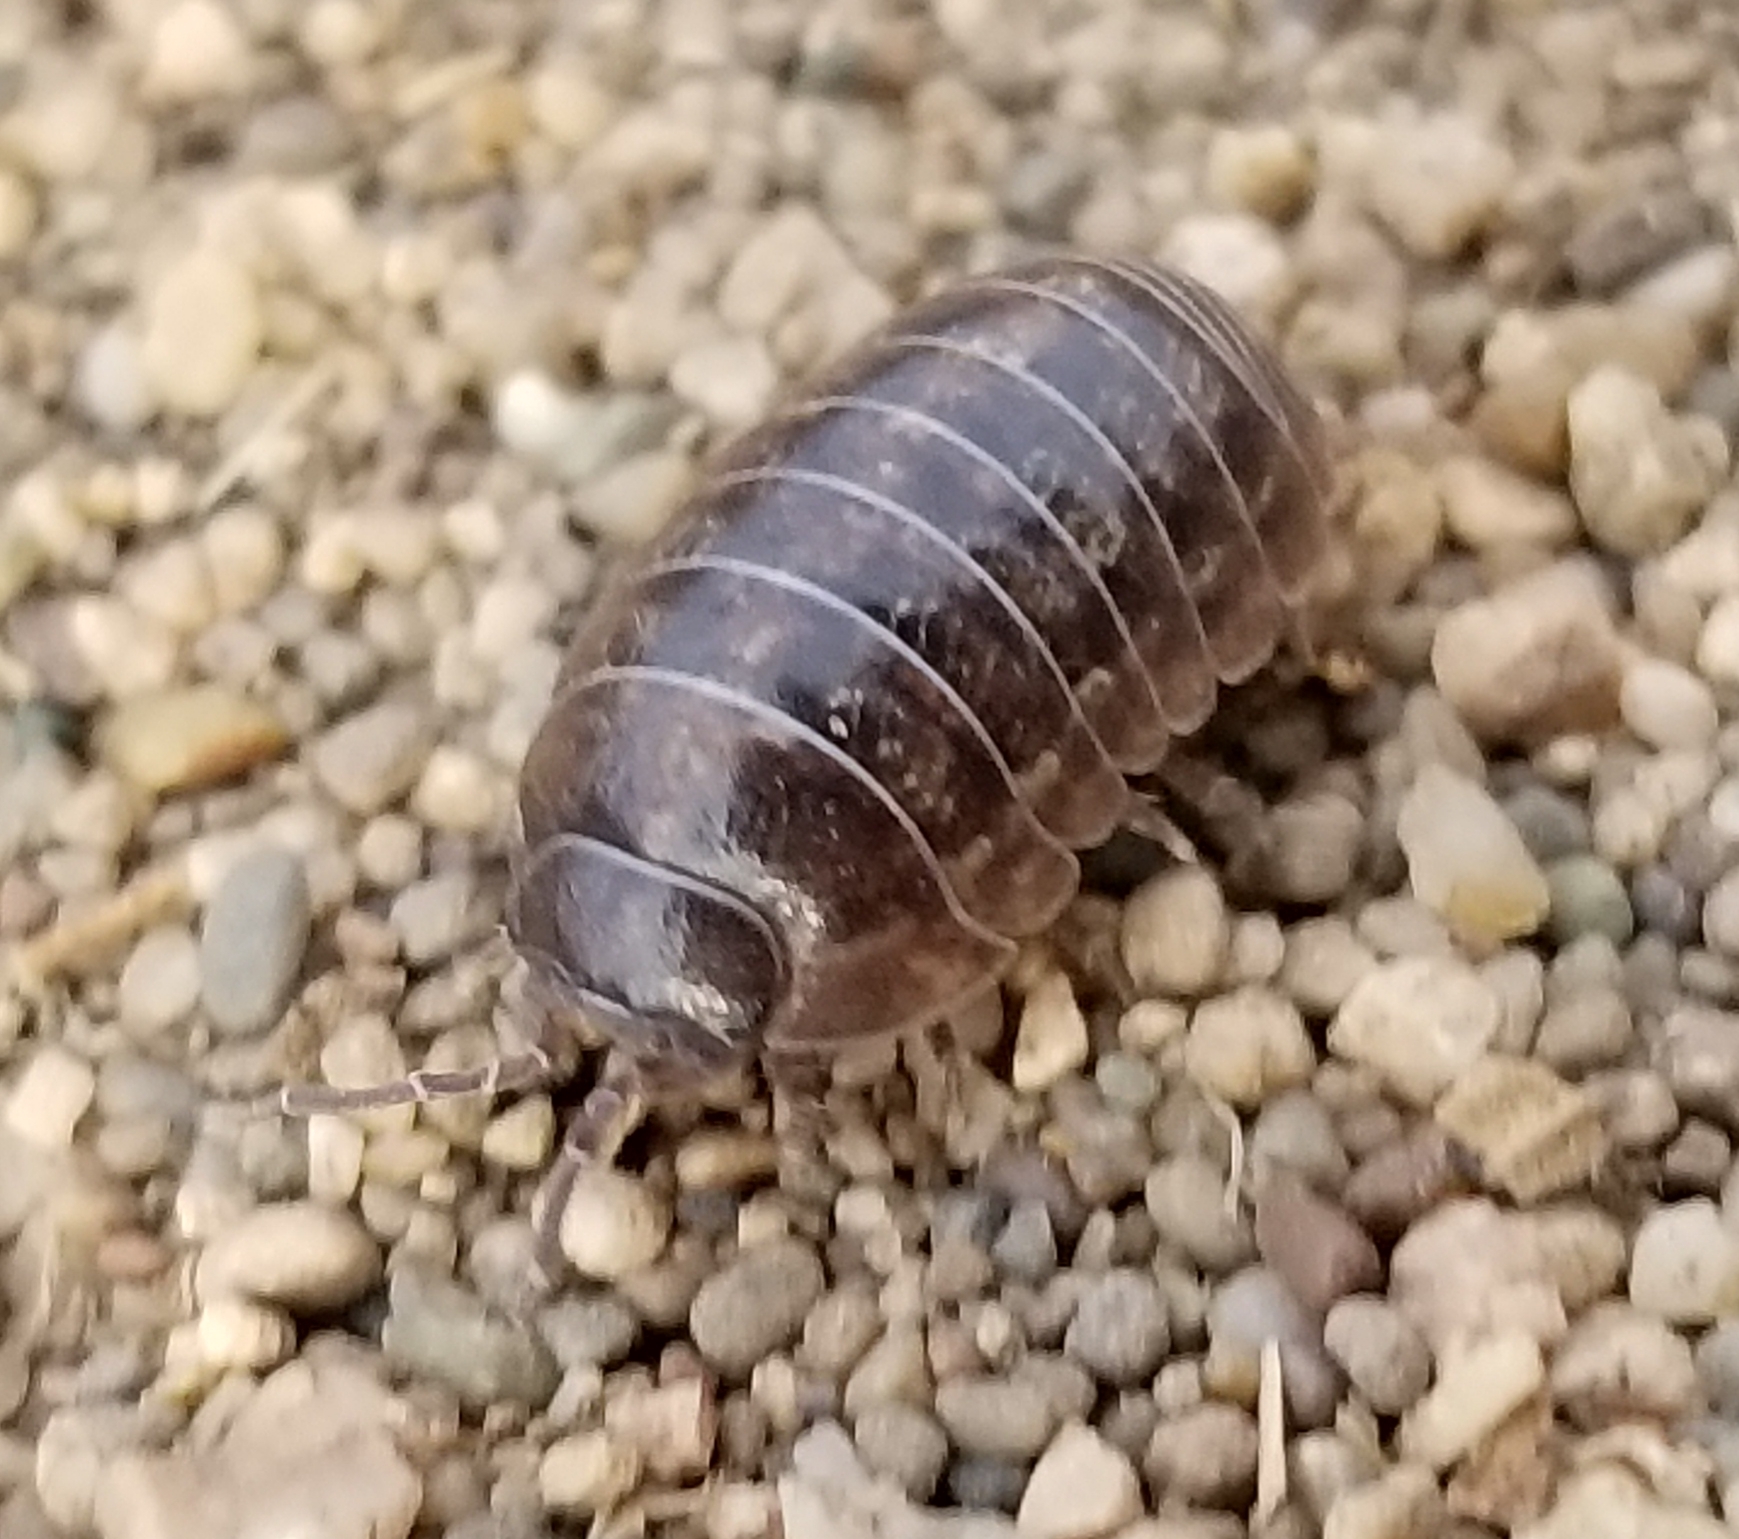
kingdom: Animalia
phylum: Arthropoda
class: Malacostraca
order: Isopoda
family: Armadillidiidae
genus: Armadillidium
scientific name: Armadillidium vulgare
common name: Common pill woodlouse
